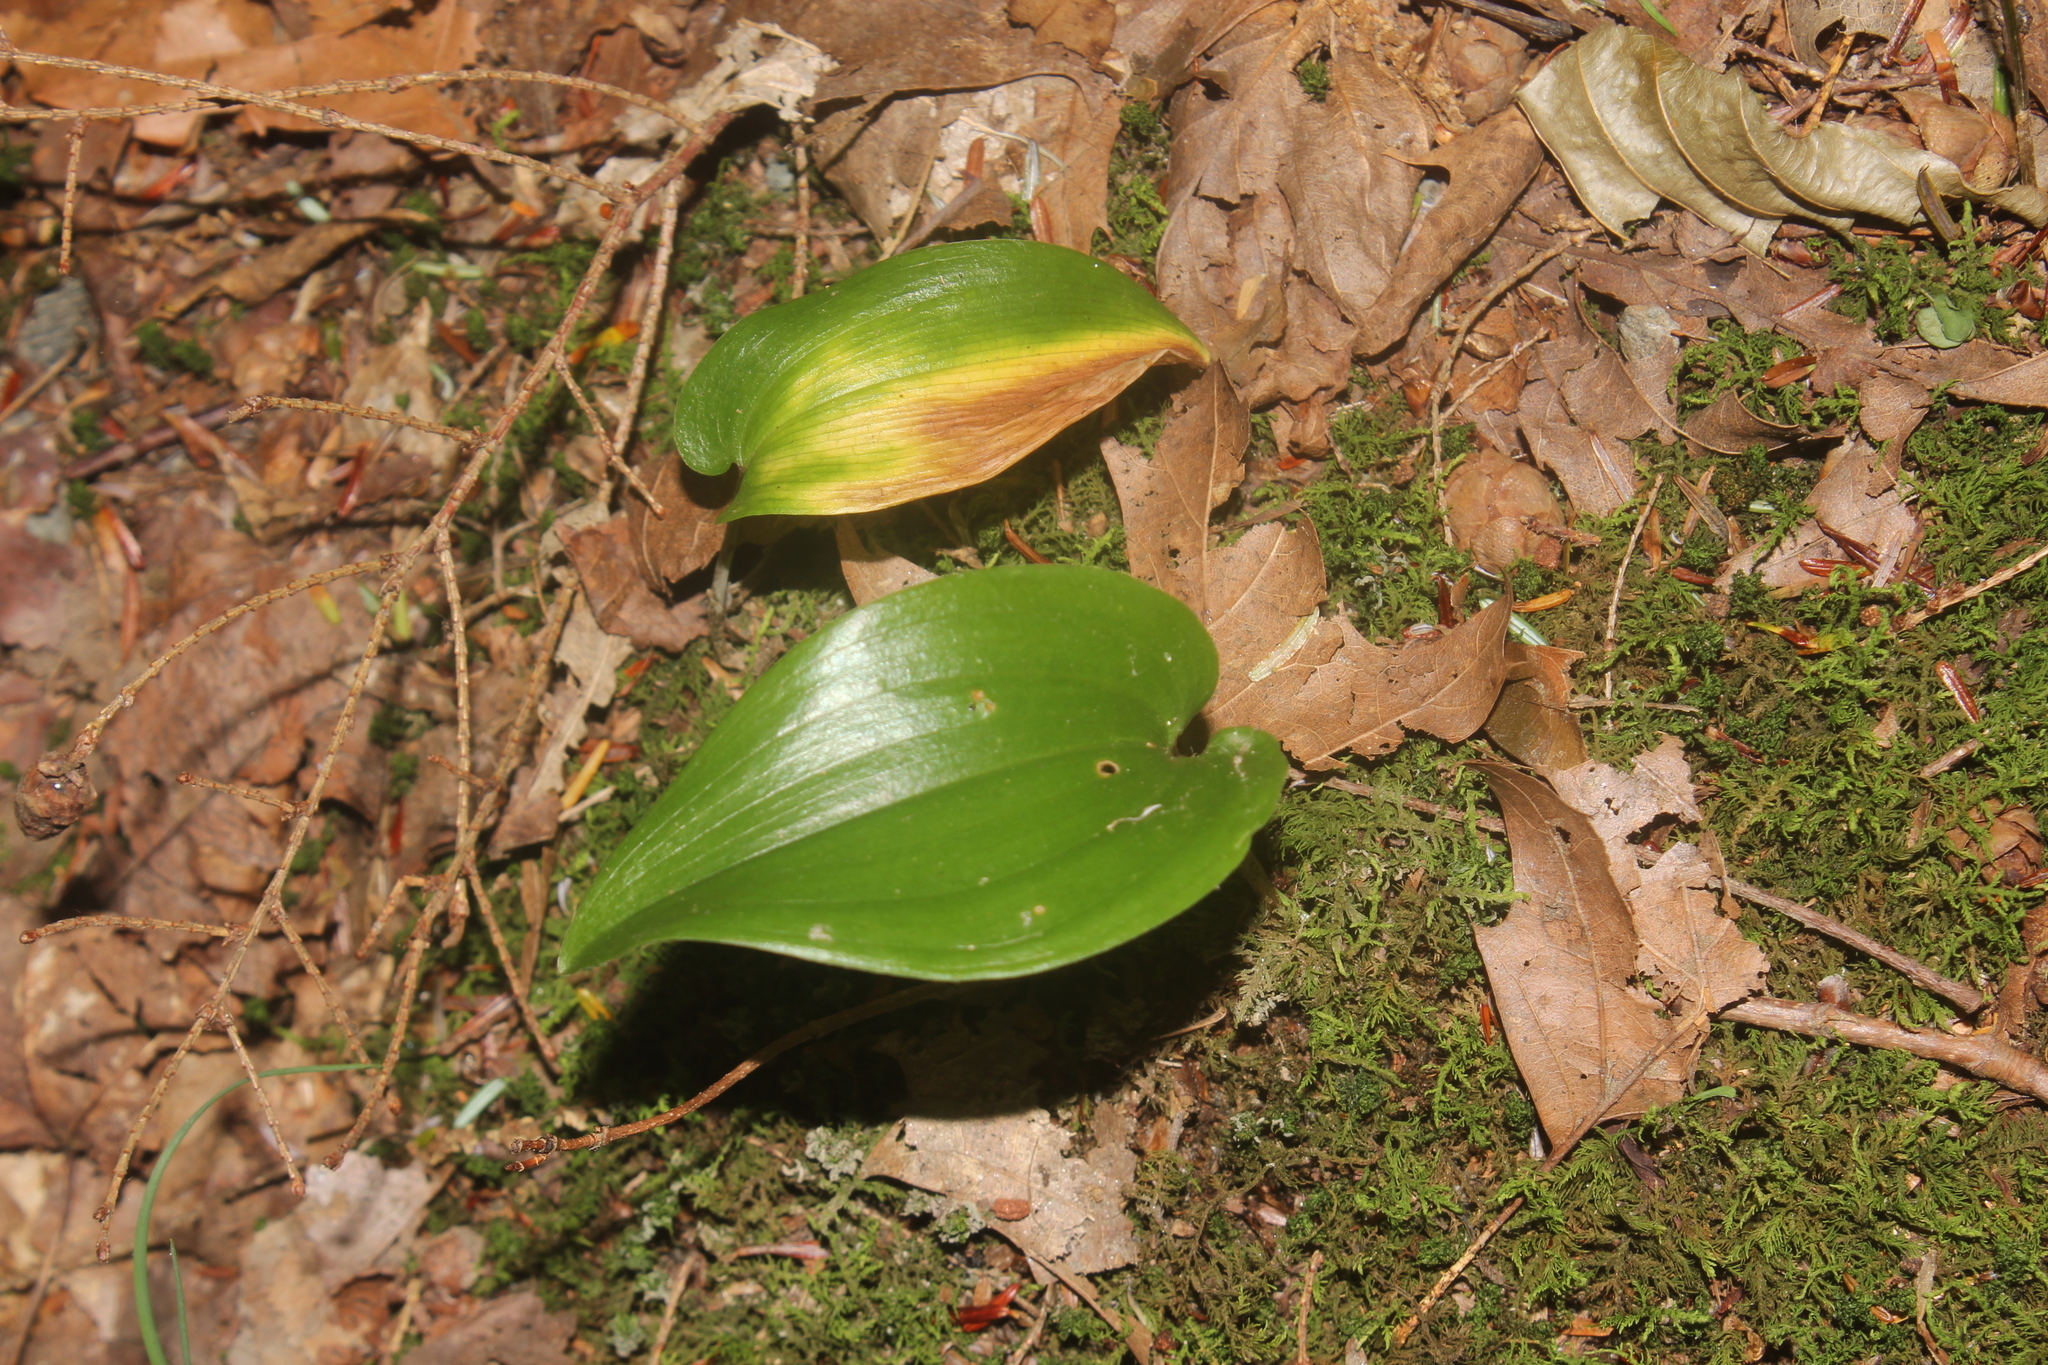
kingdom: Plantae
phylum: Tracheophyta
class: Liliopsida
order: Asparagales
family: Asparagaceae
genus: Maianthemum
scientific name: Maianthemum canadense
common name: False lily-of-the-valley
